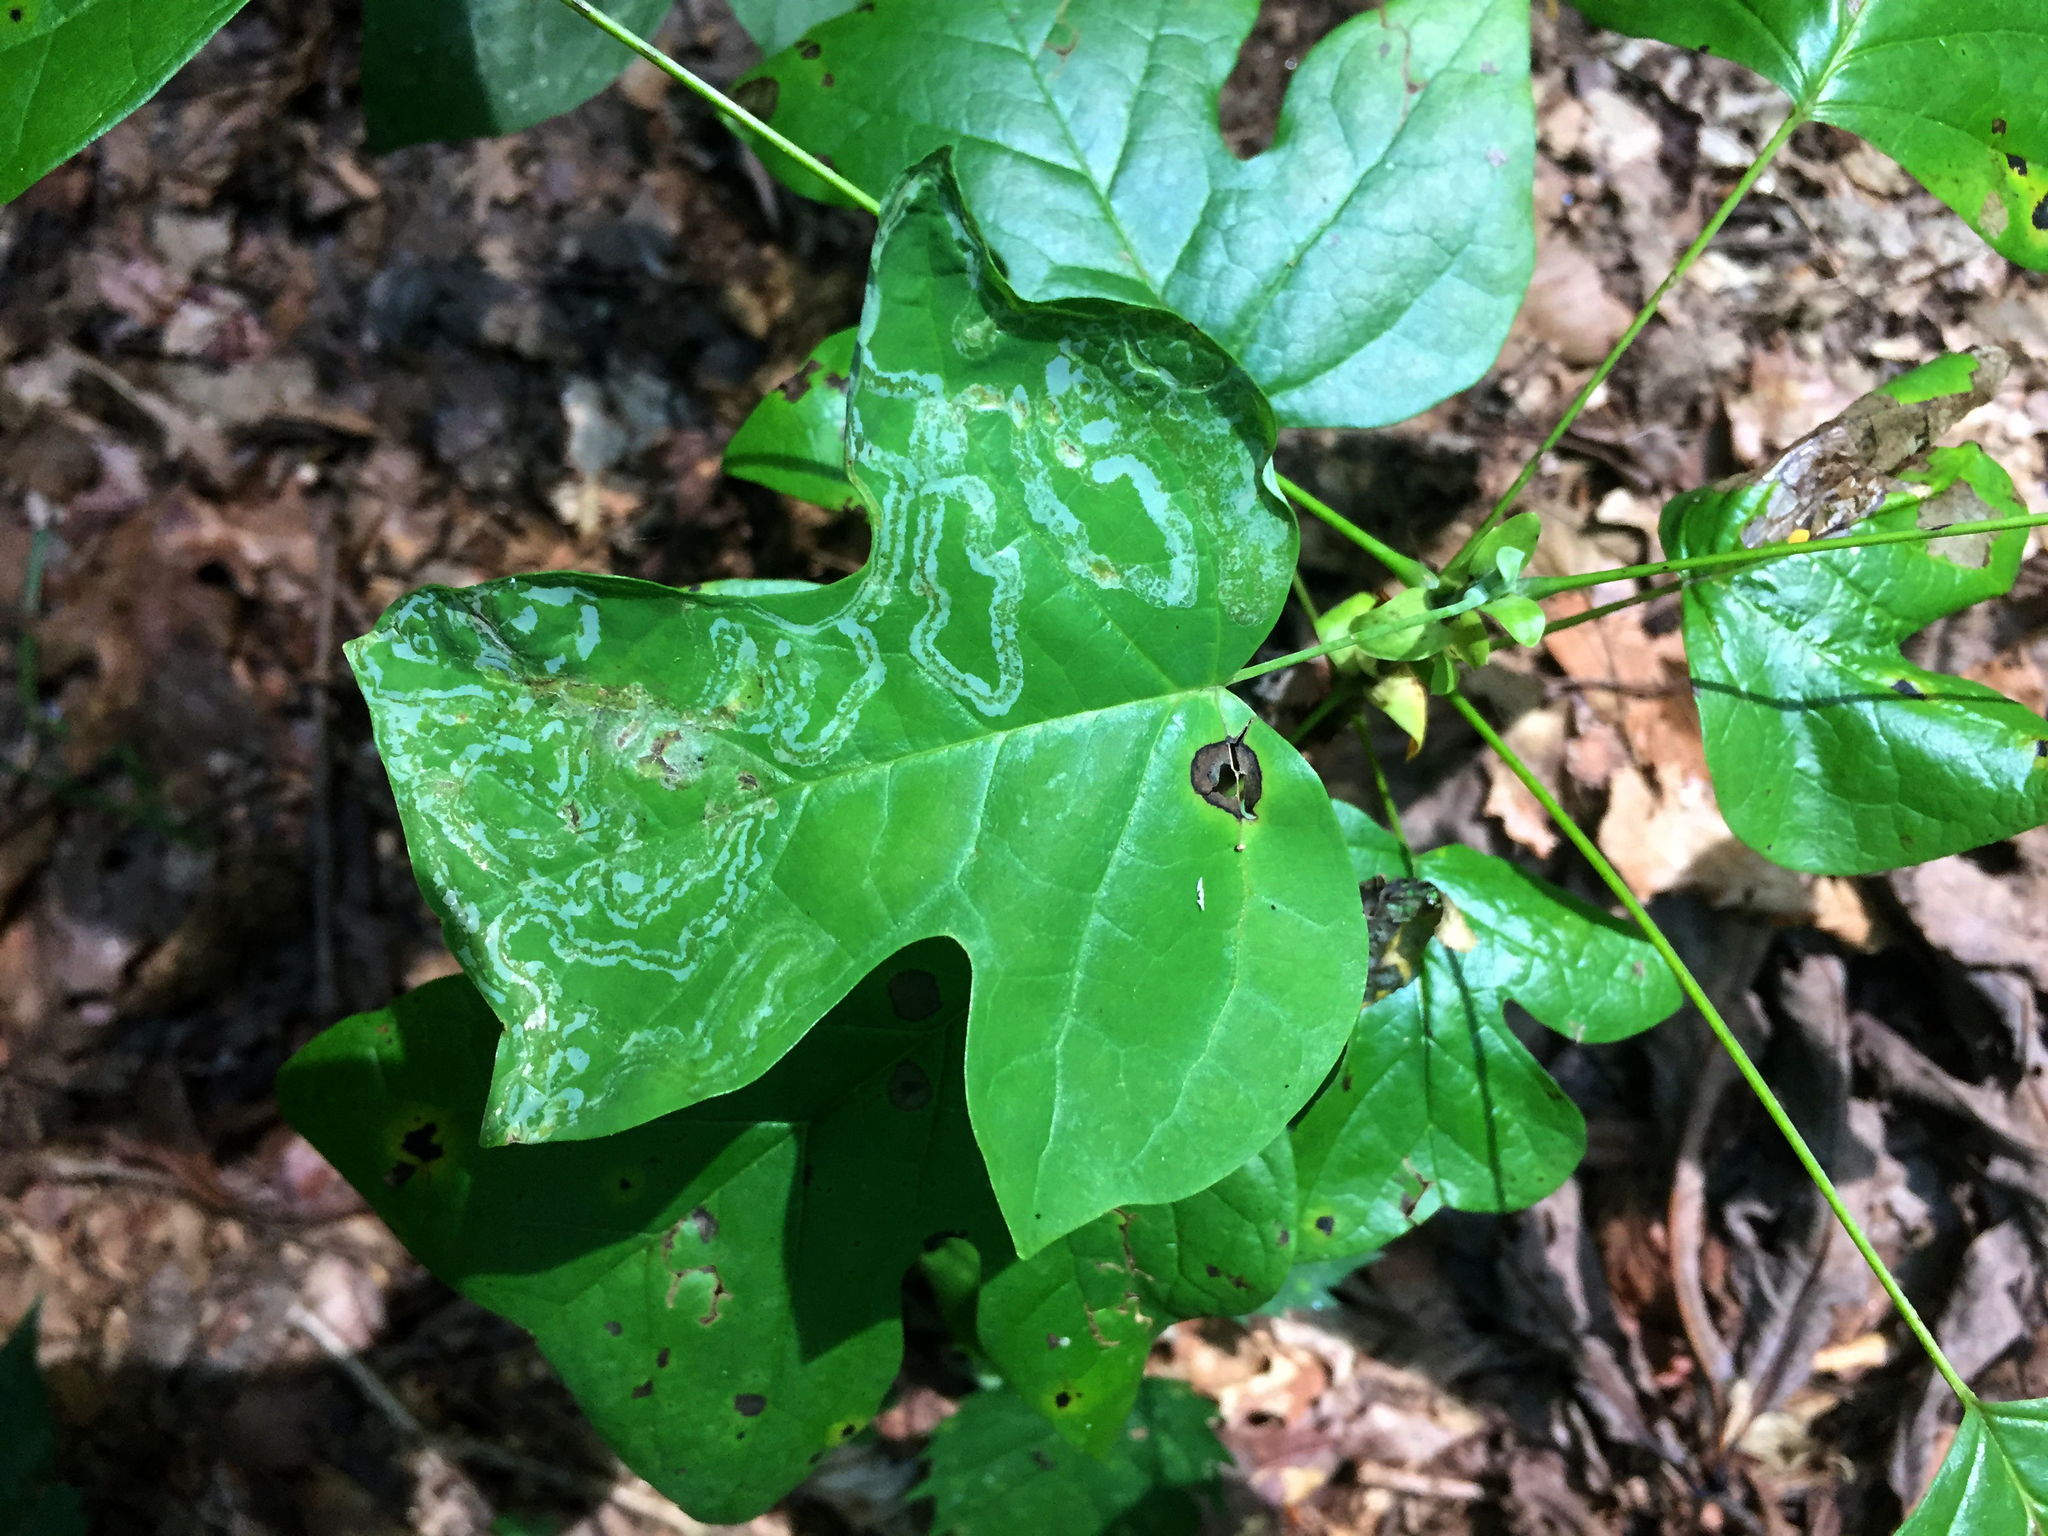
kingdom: Animalia
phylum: Arthropoda
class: Insecta
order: Lepidoptera
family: Gracillariidae
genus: Phyllocnistis
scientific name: Phyllocnistis liriodendronella
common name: Tulip tree leaf miner
